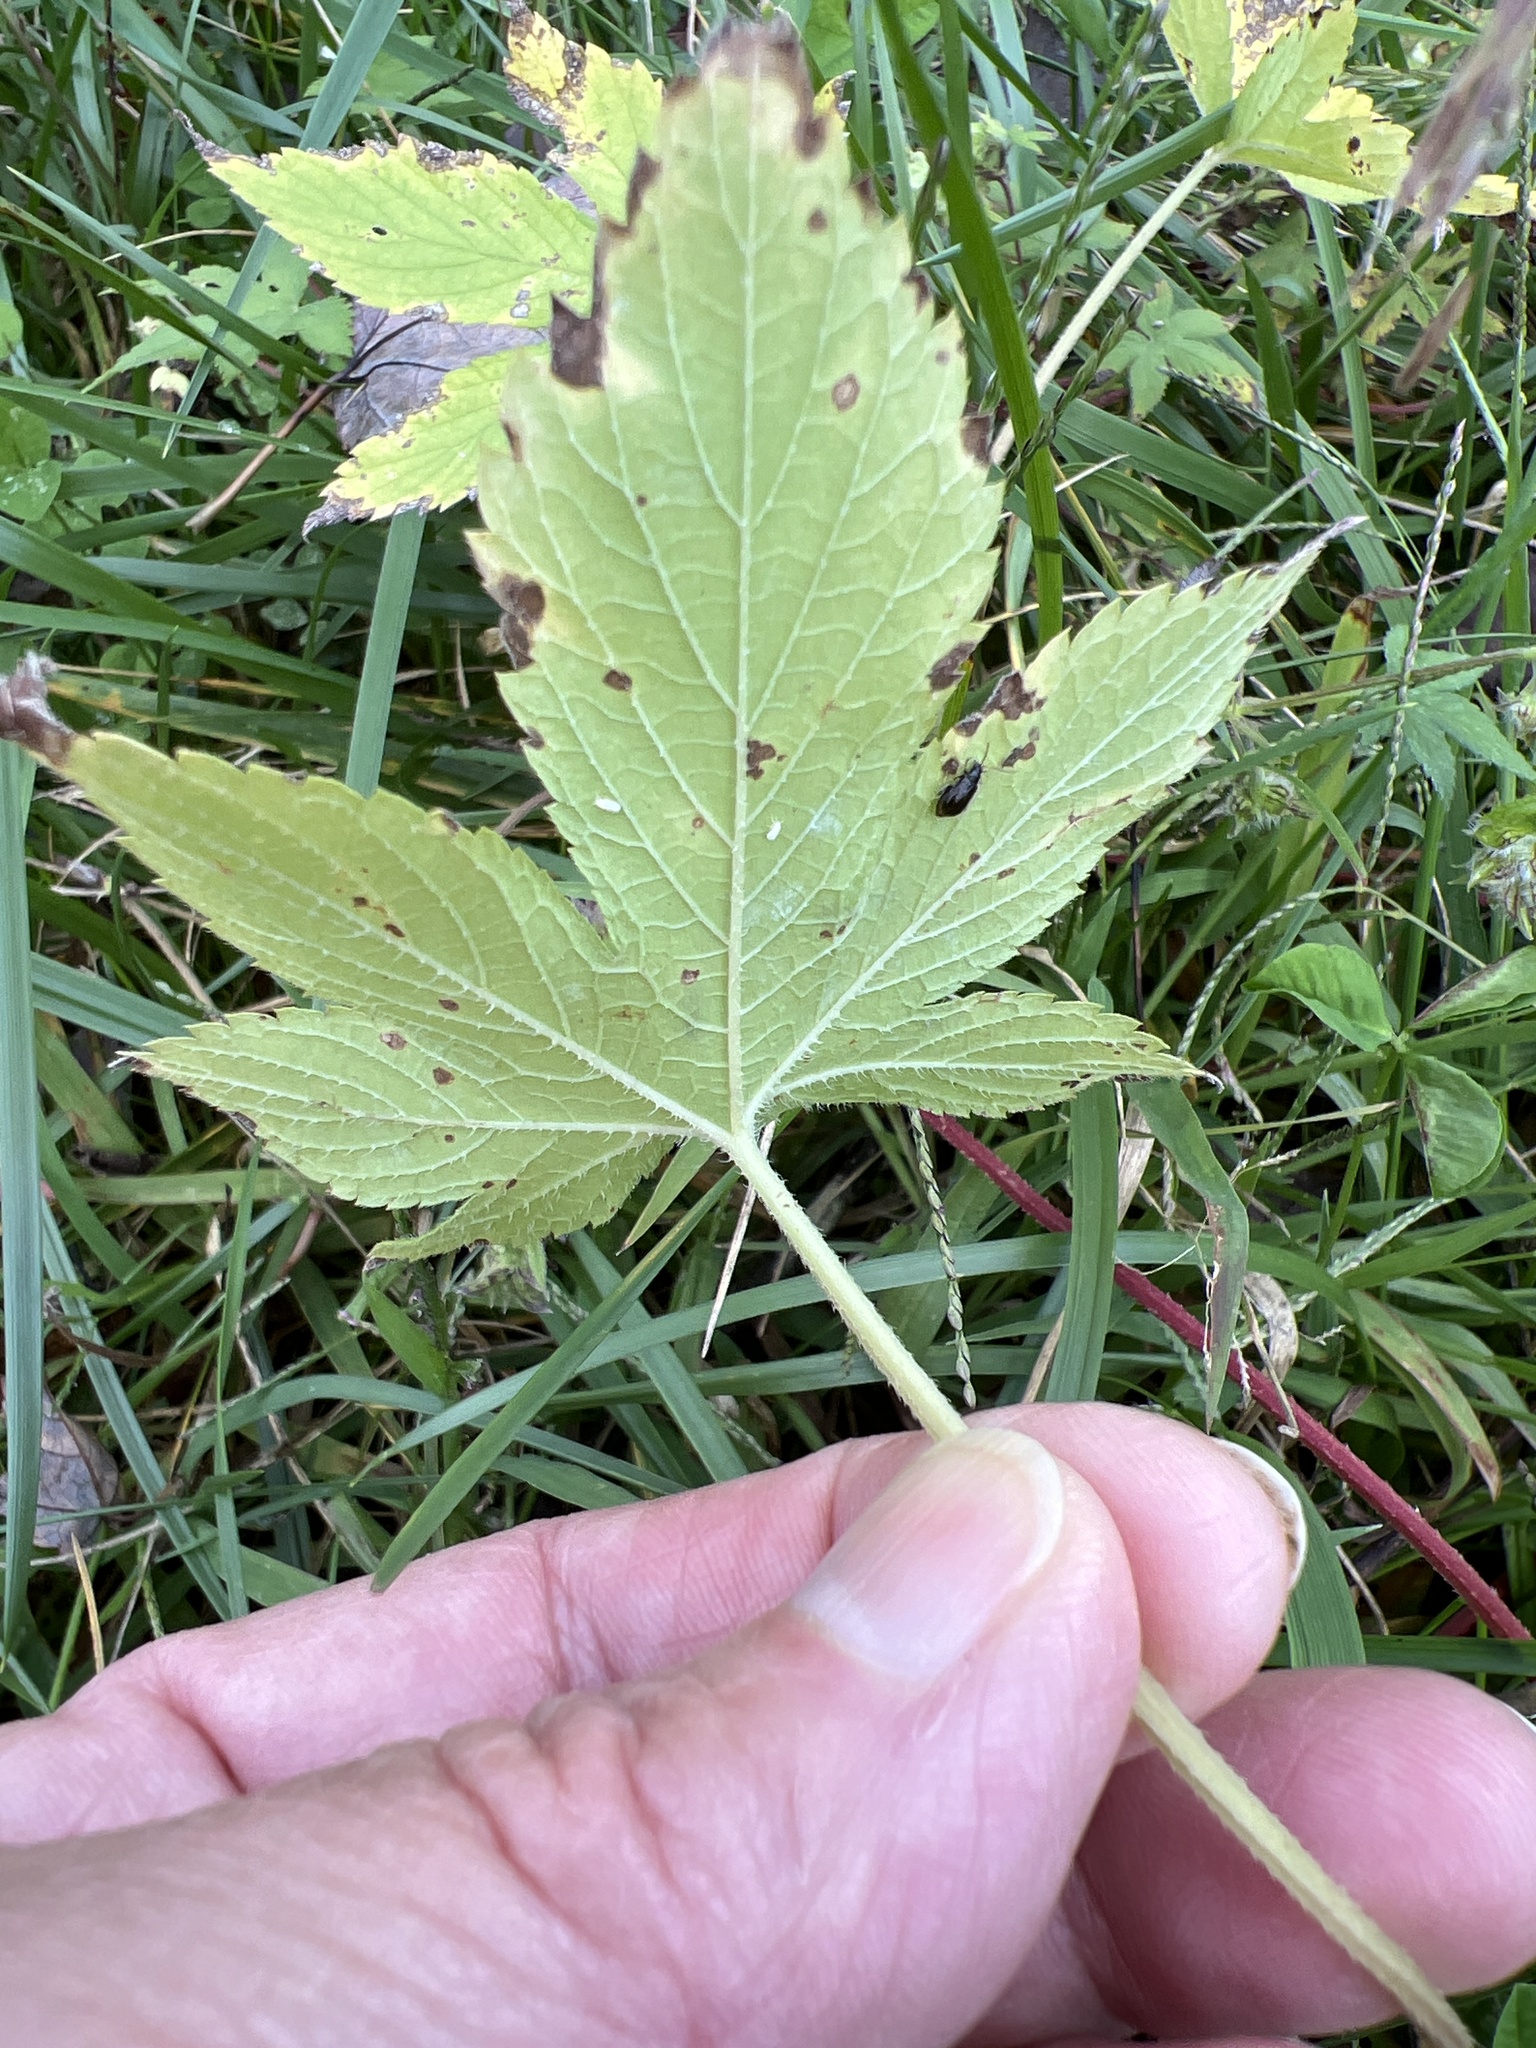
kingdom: Plantae
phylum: Tracheophyta
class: Magnoliopsida
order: Rosales
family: Cannabaceae
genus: Humulus
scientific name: Humulus scandens
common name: Japanese hop
